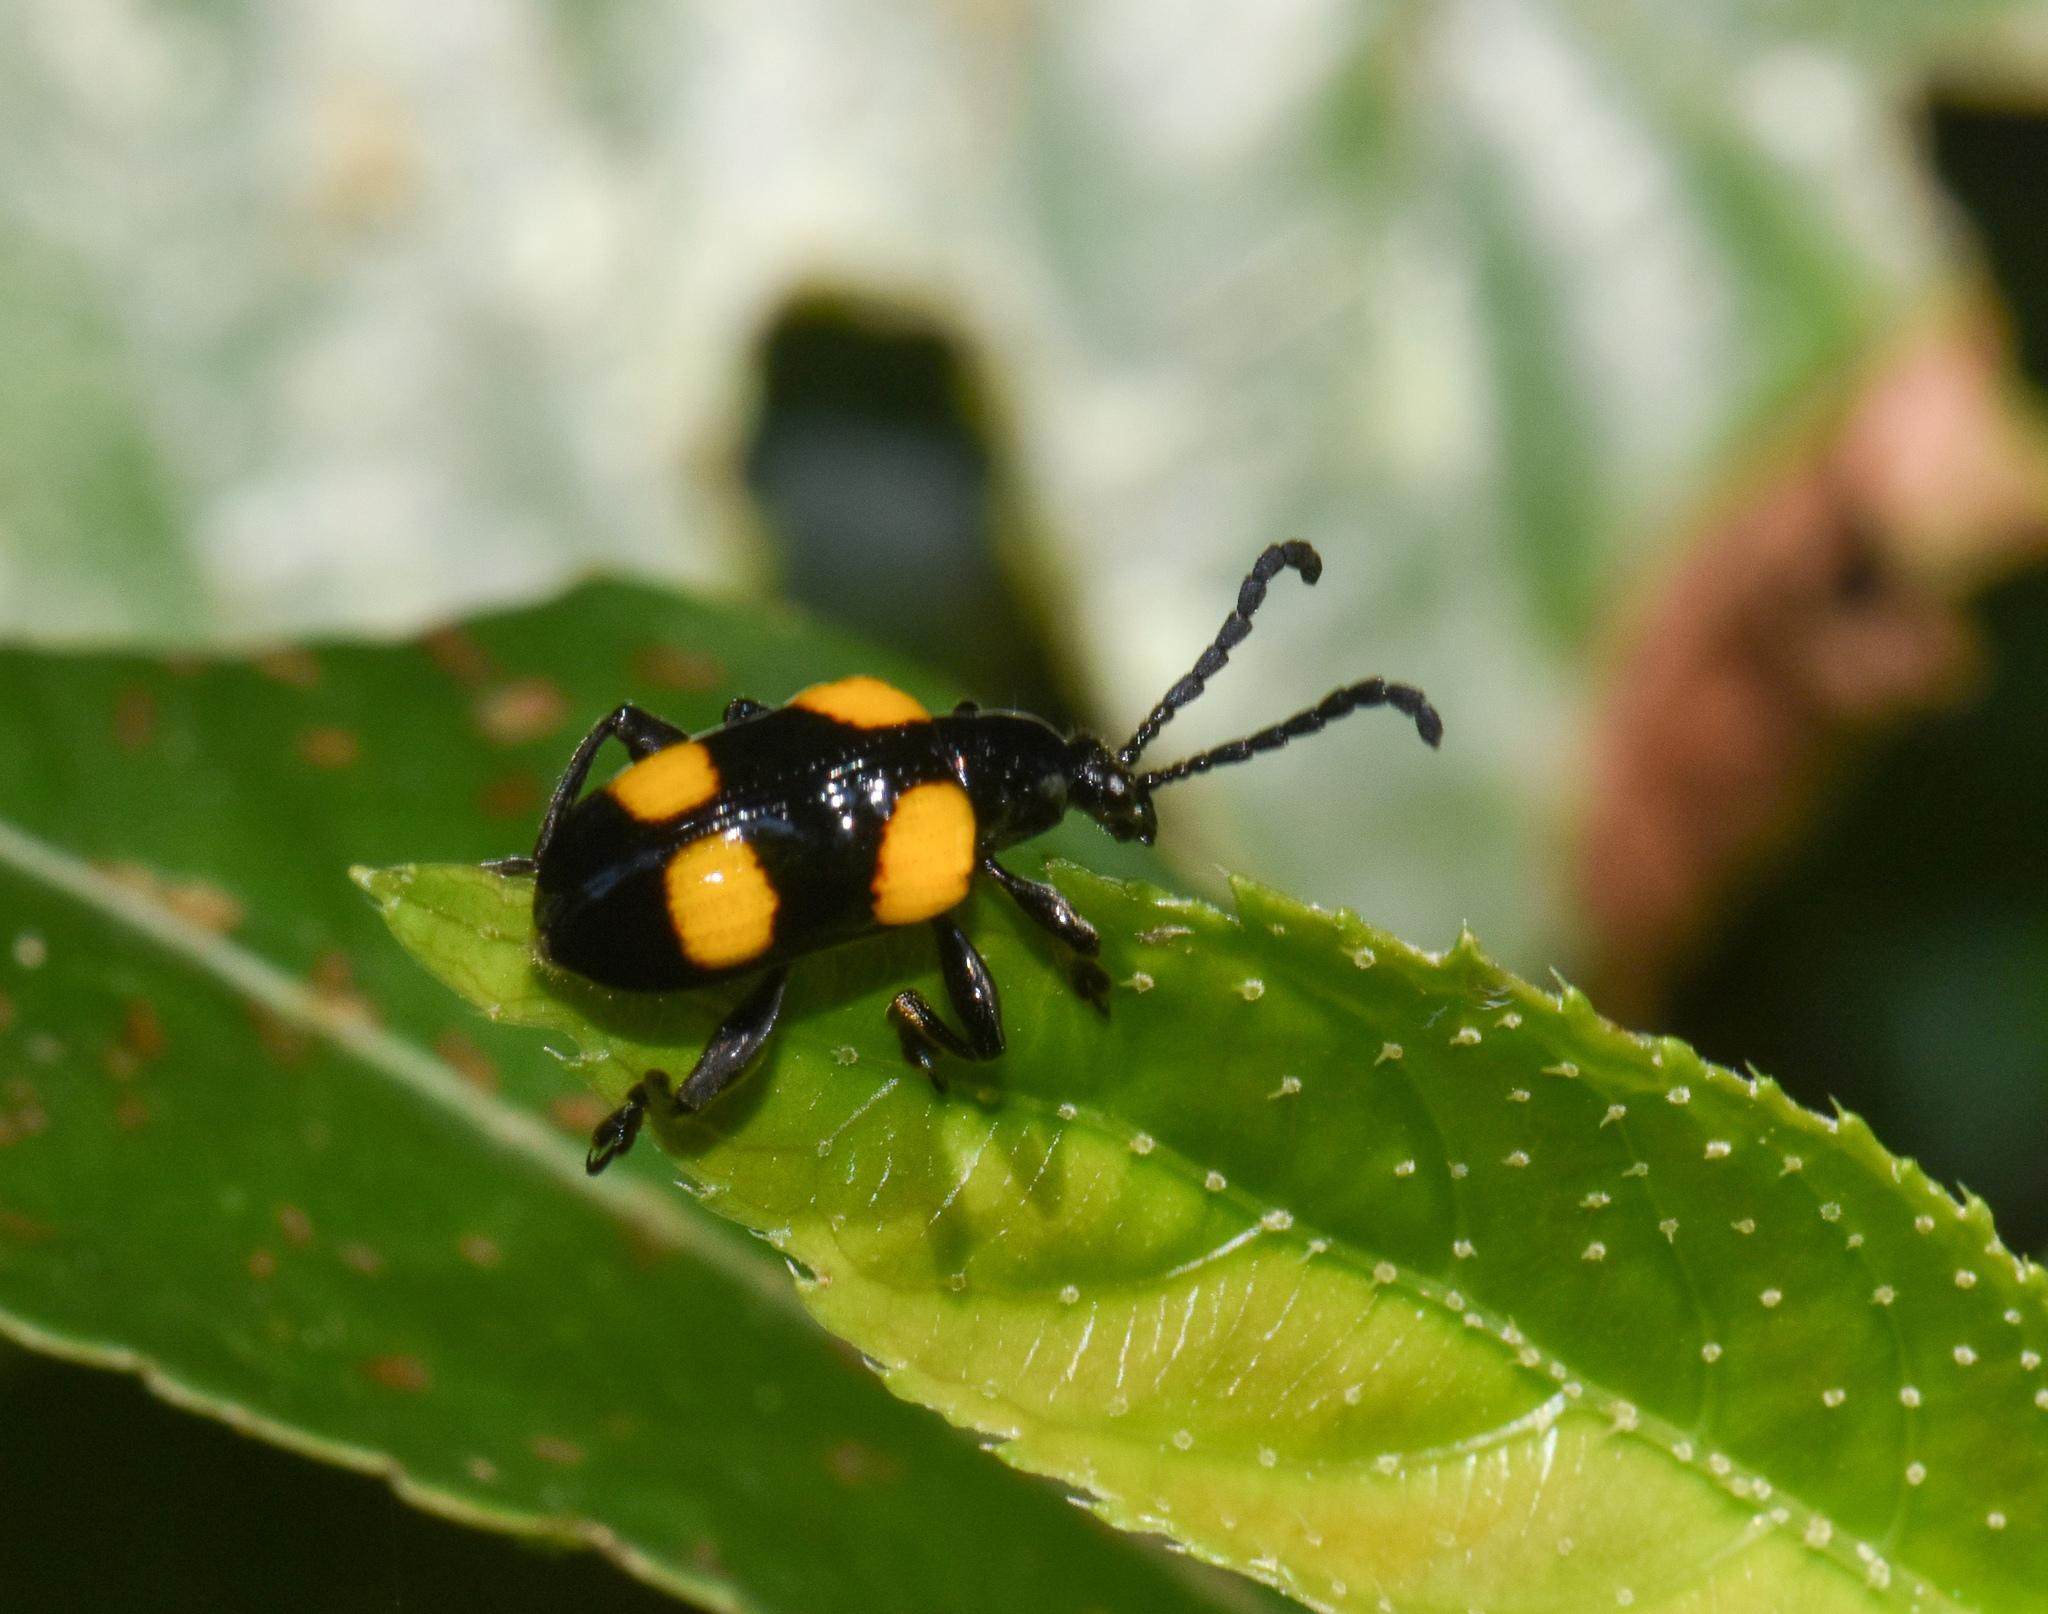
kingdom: Animalia
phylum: Arthropoda
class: Insecta
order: Coleoptera
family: Chrysomelidae
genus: Lilioceris
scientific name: Lilioceris
